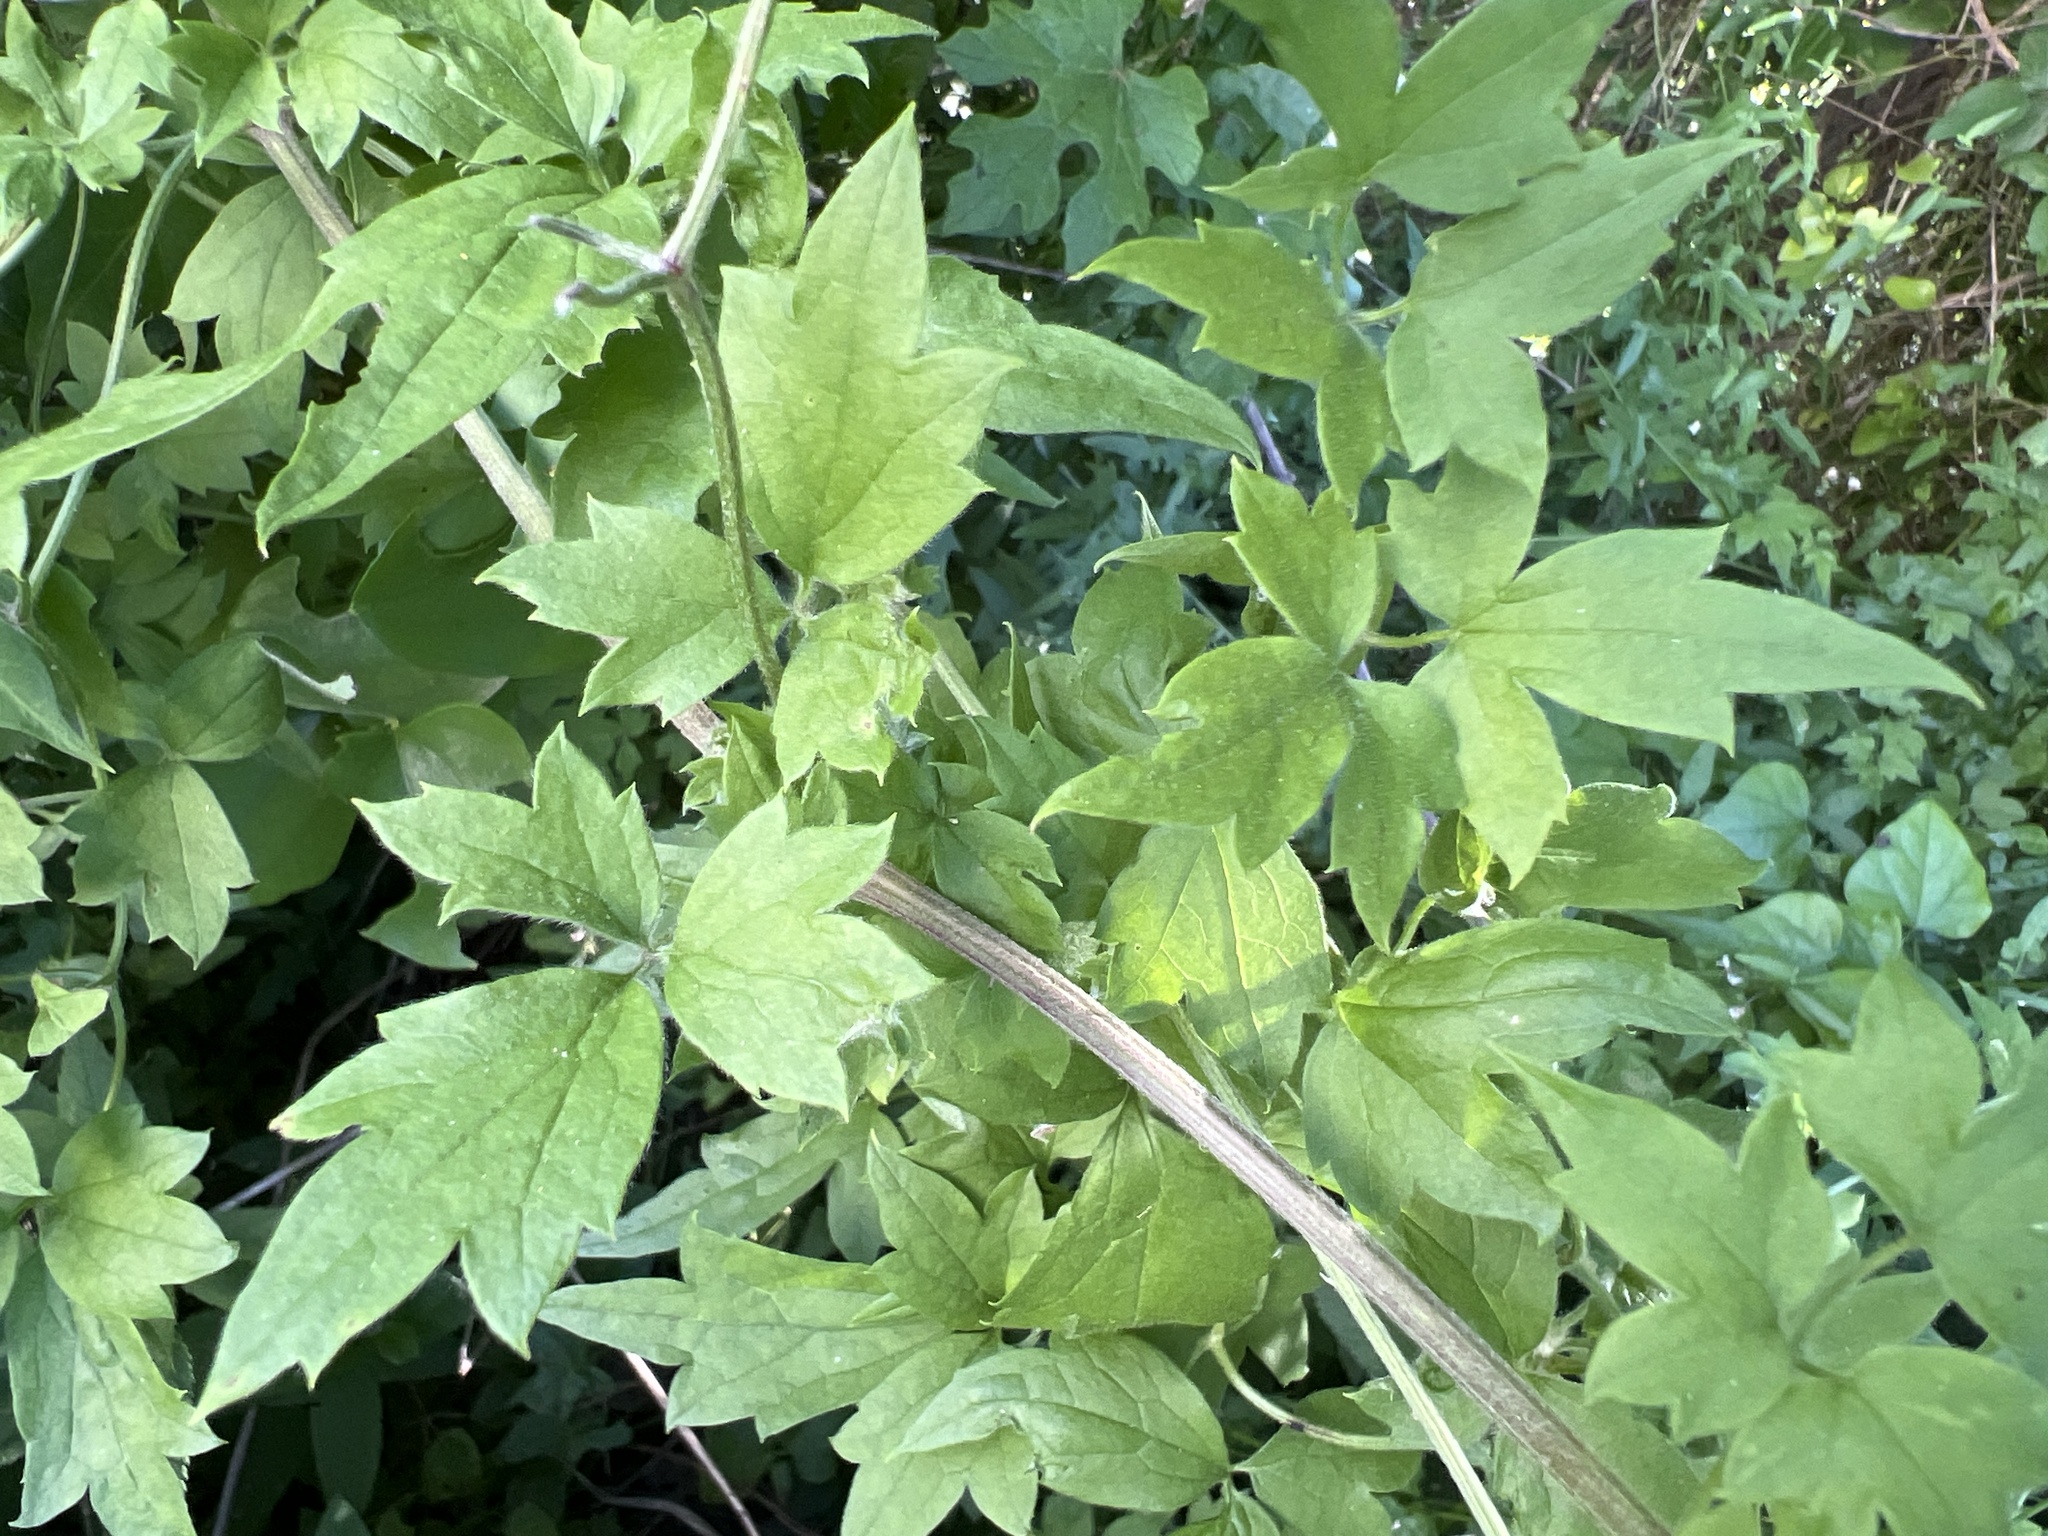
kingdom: Plantae
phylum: Tracheophyta
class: Magnoliopsida
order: Ranunculales
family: Ranunculaceae
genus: Clematis
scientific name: Clematis drummondii
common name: Texas virgin's bower
